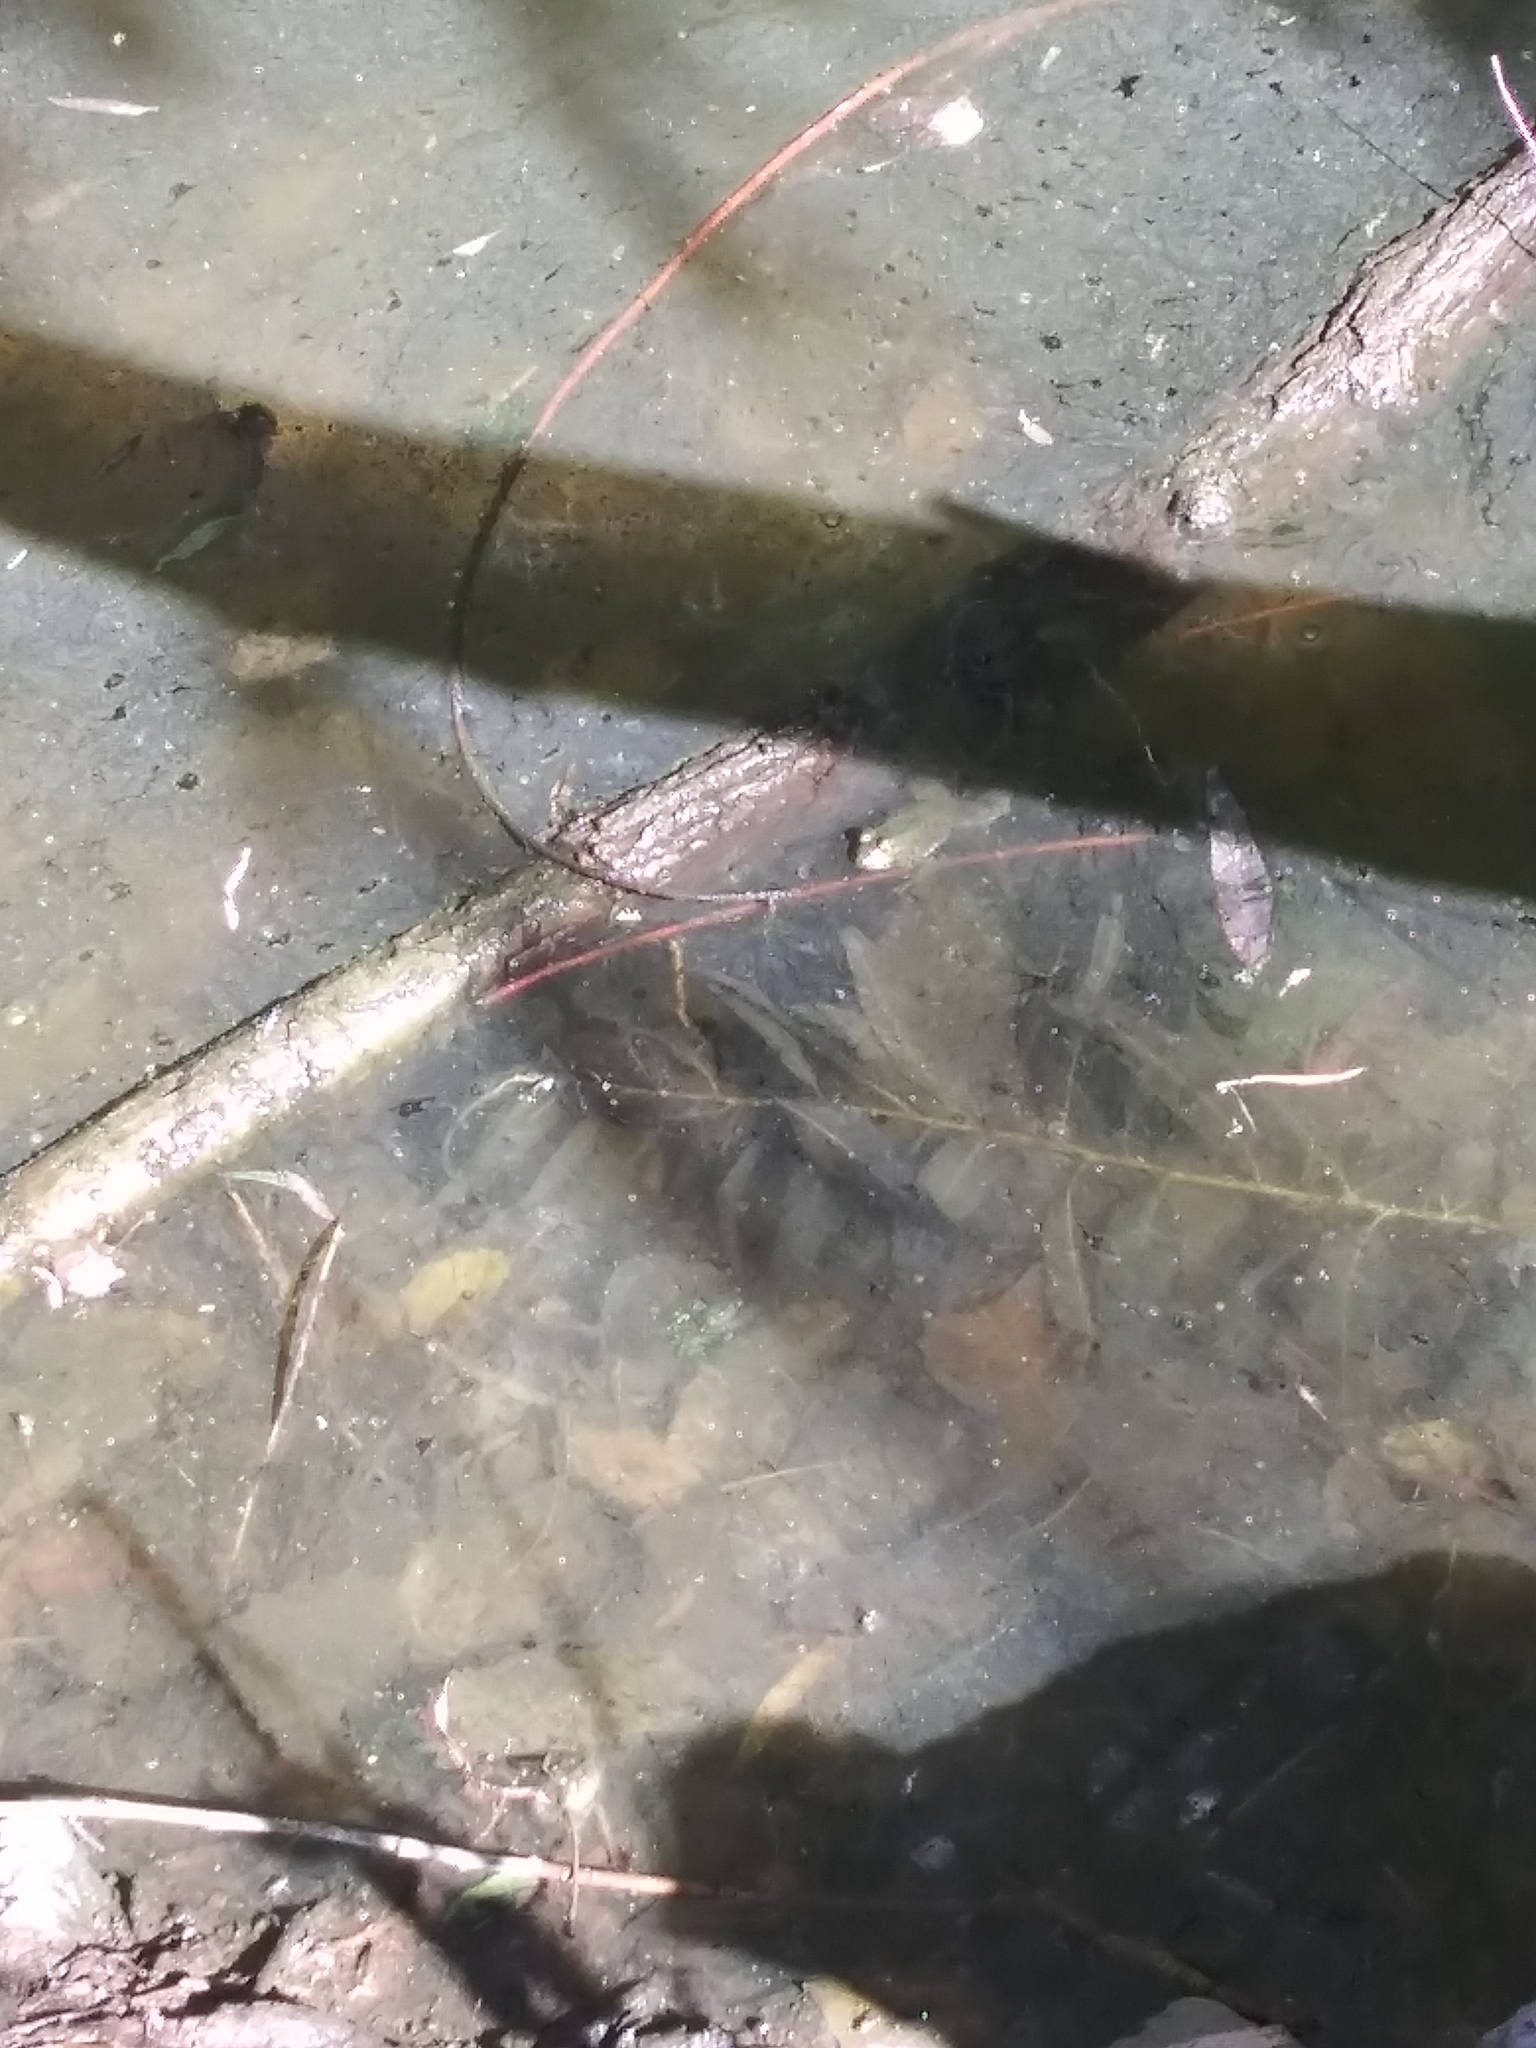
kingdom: Animalia
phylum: Chordata
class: Amphibia
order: Anura
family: Ranidae
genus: Lithobates
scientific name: Lithobates catesbeianus
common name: American bullfrog
